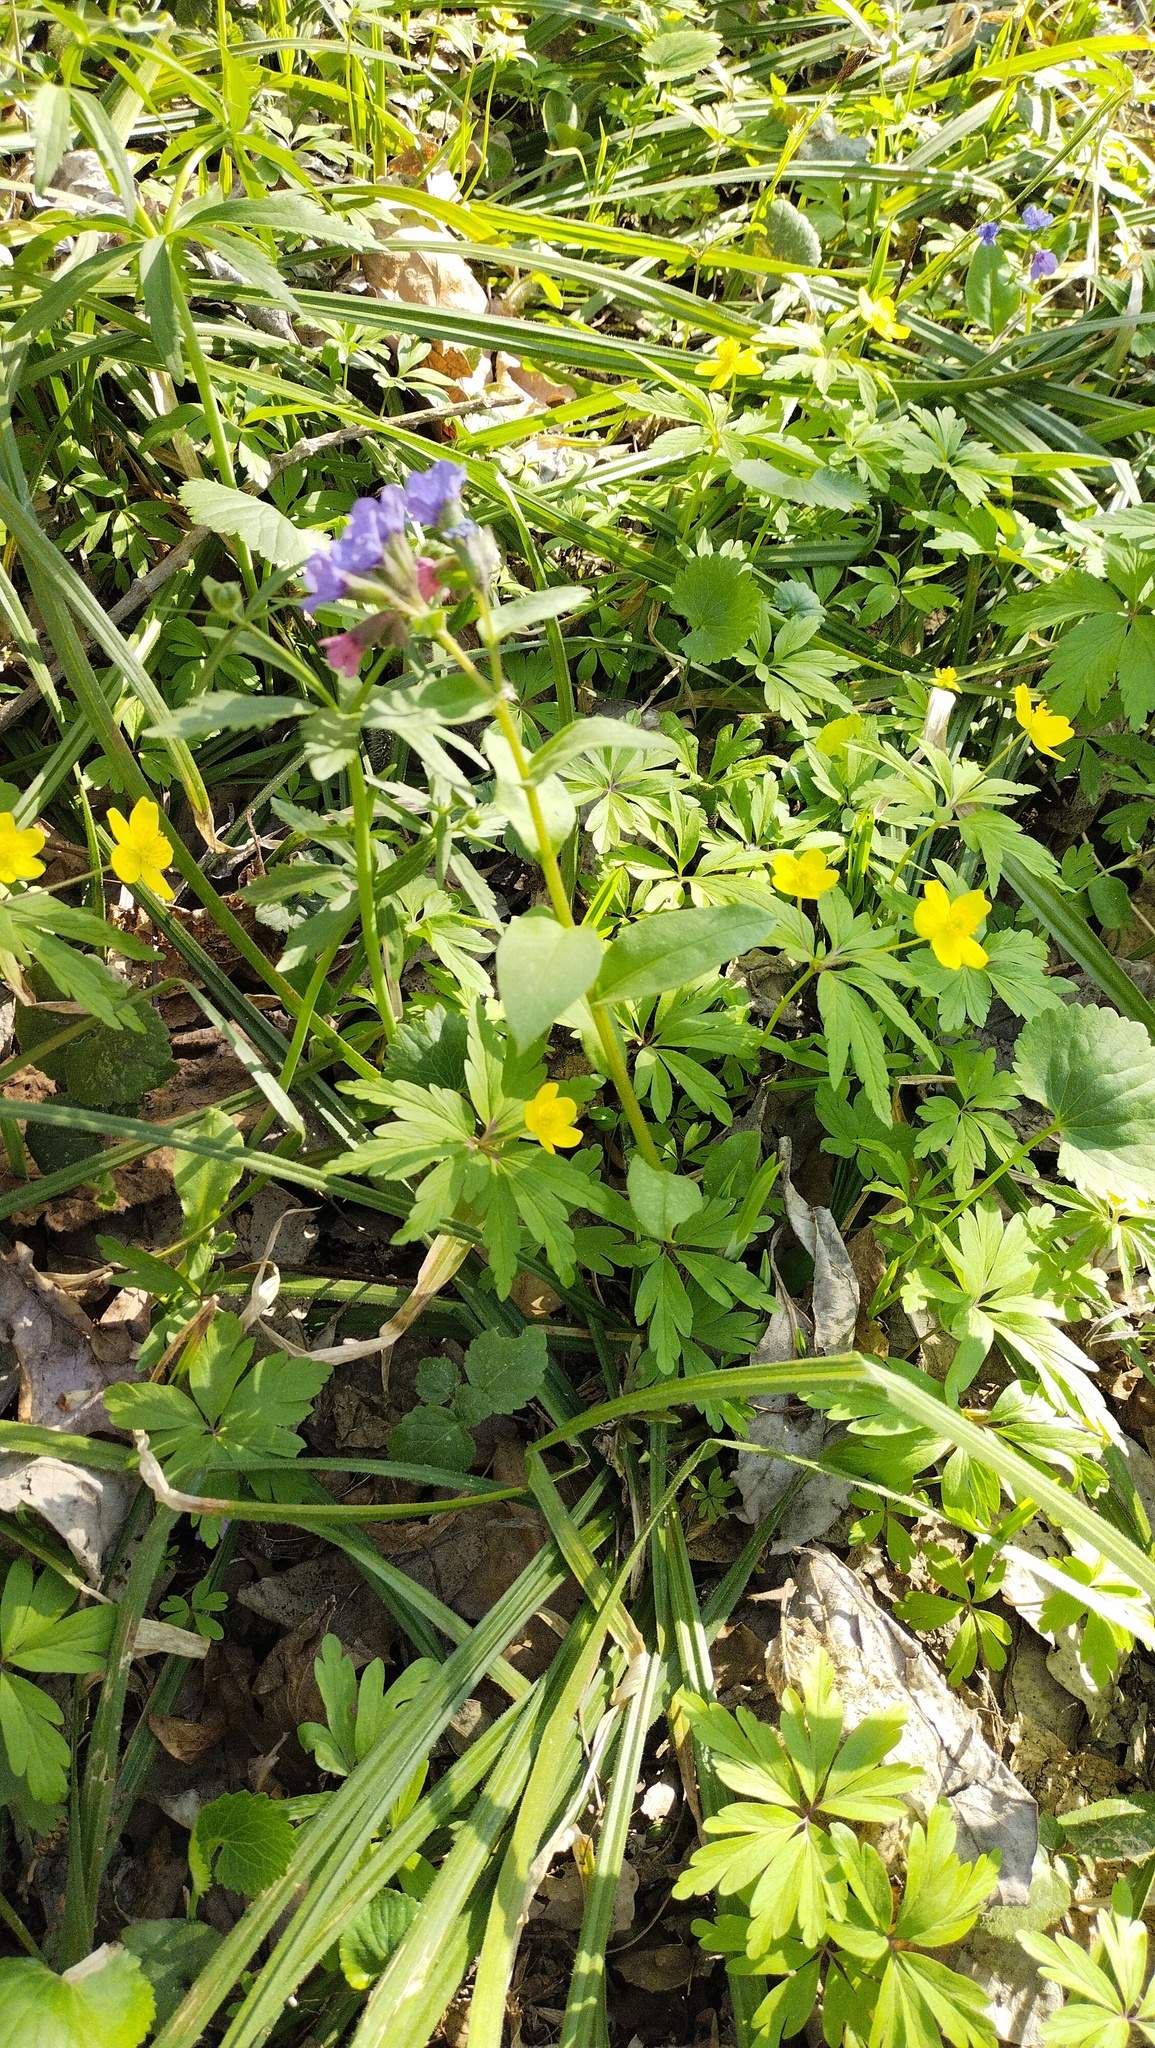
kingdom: Plantae
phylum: Tracheophyta
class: Magnoliopsida
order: Boraginales
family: Boraginaceae
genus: Pulmonaria
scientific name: Pulmonaria obscura
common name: Suffolk lungwort
